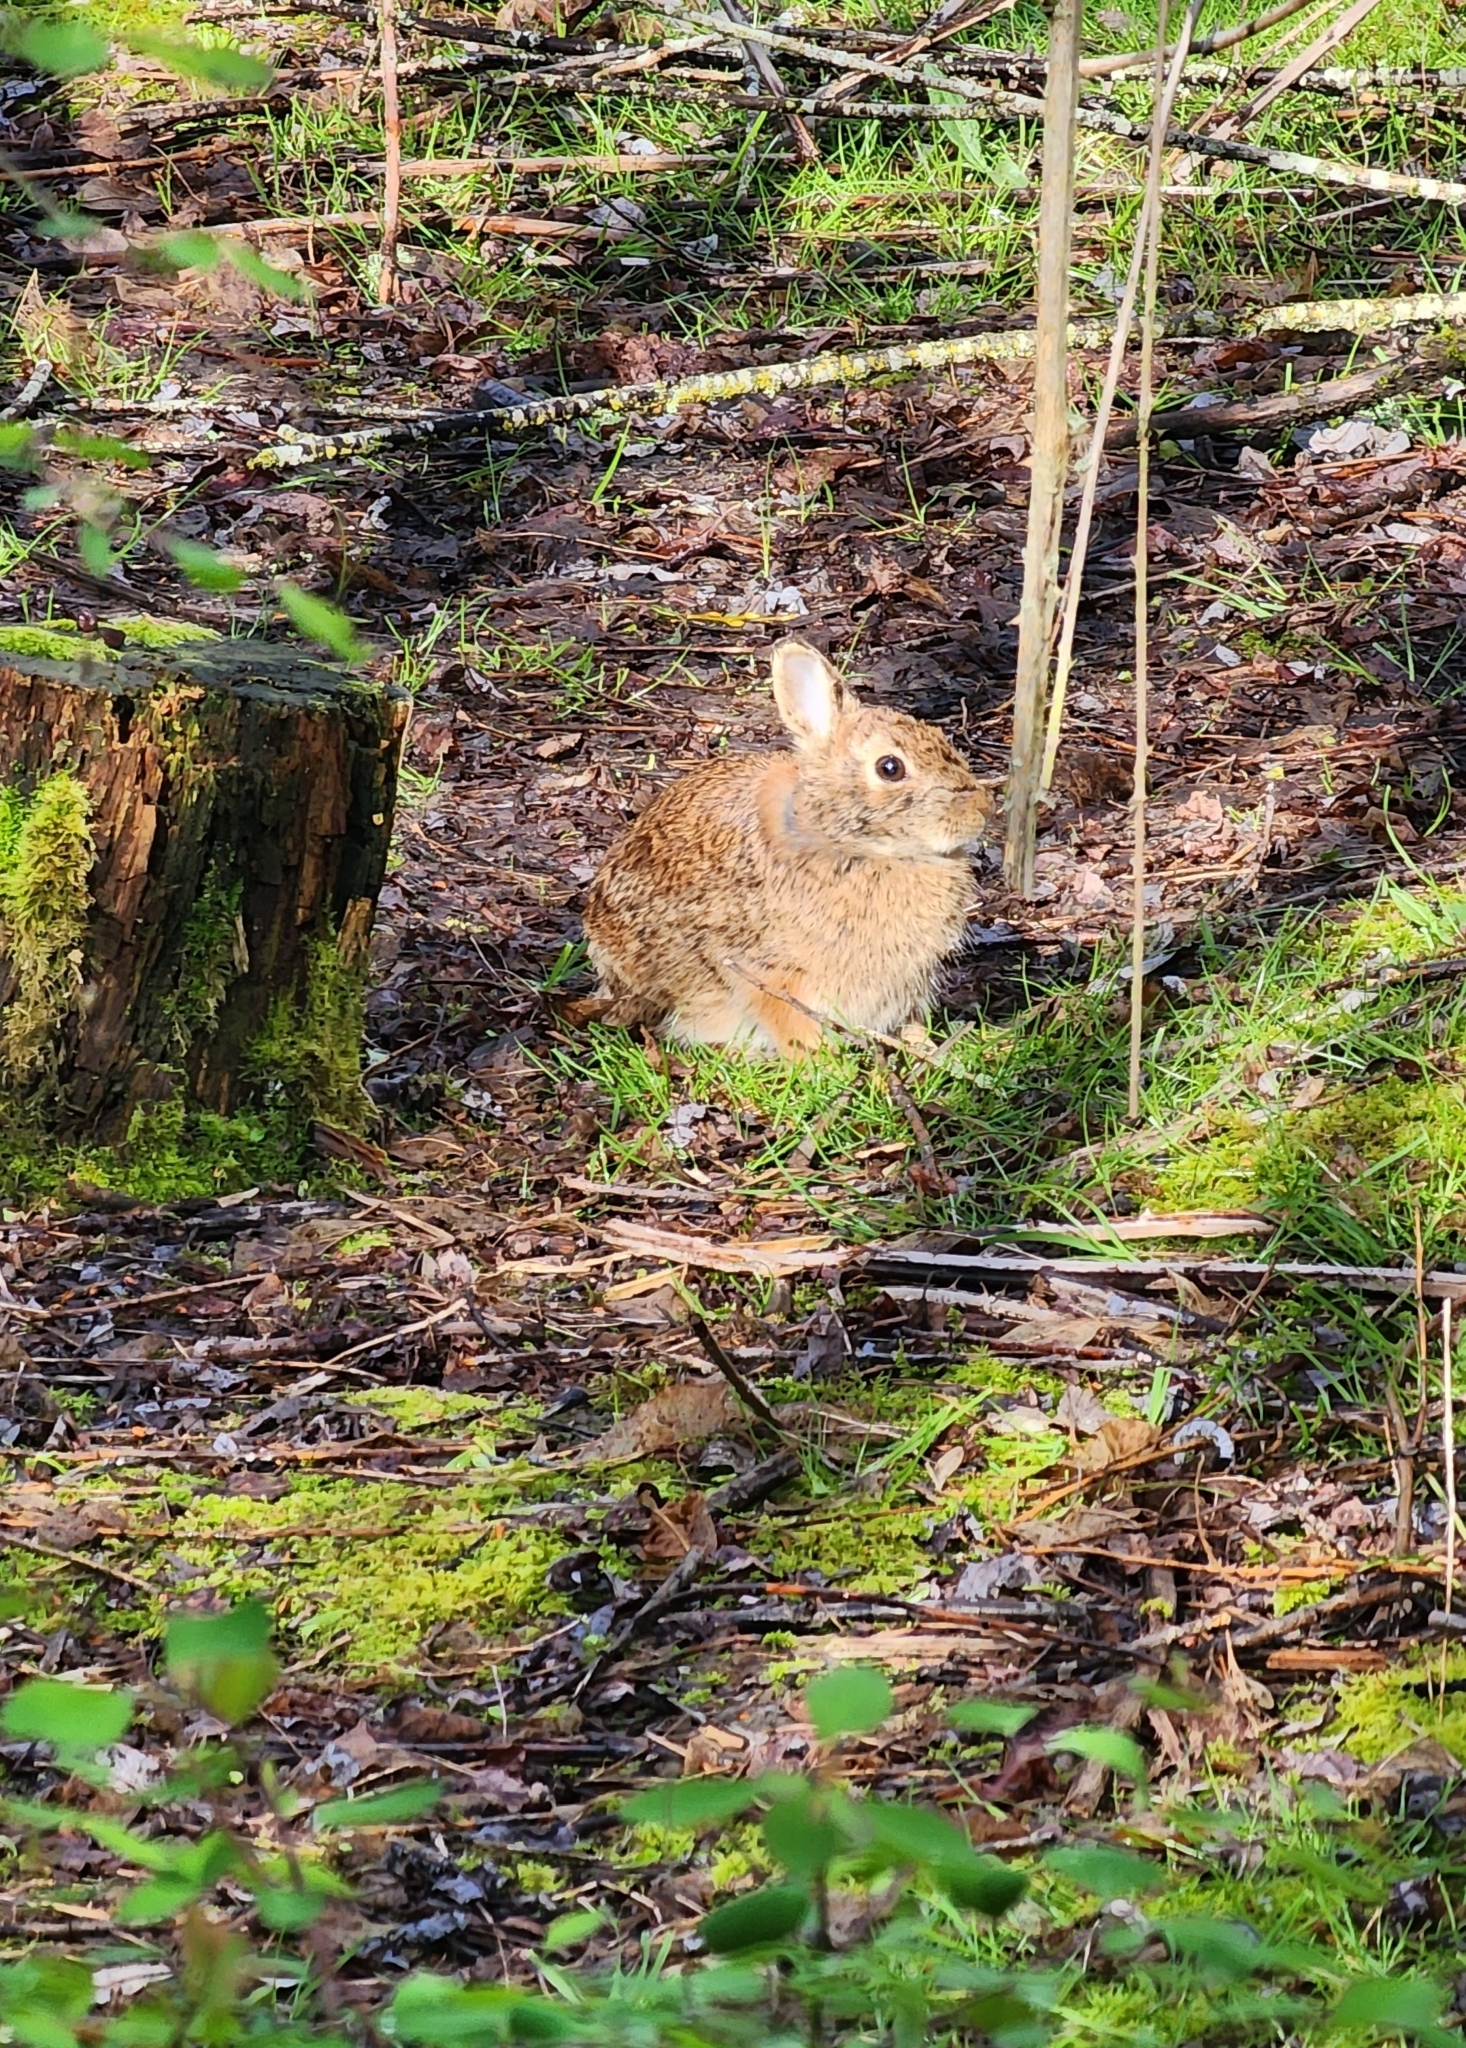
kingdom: Animalia
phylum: Chordata
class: Mammalia
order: Lagomorpha
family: Leporidae
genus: Sylvilagus
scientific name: Sylvilagus floridanus
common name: Eastern cottontail
